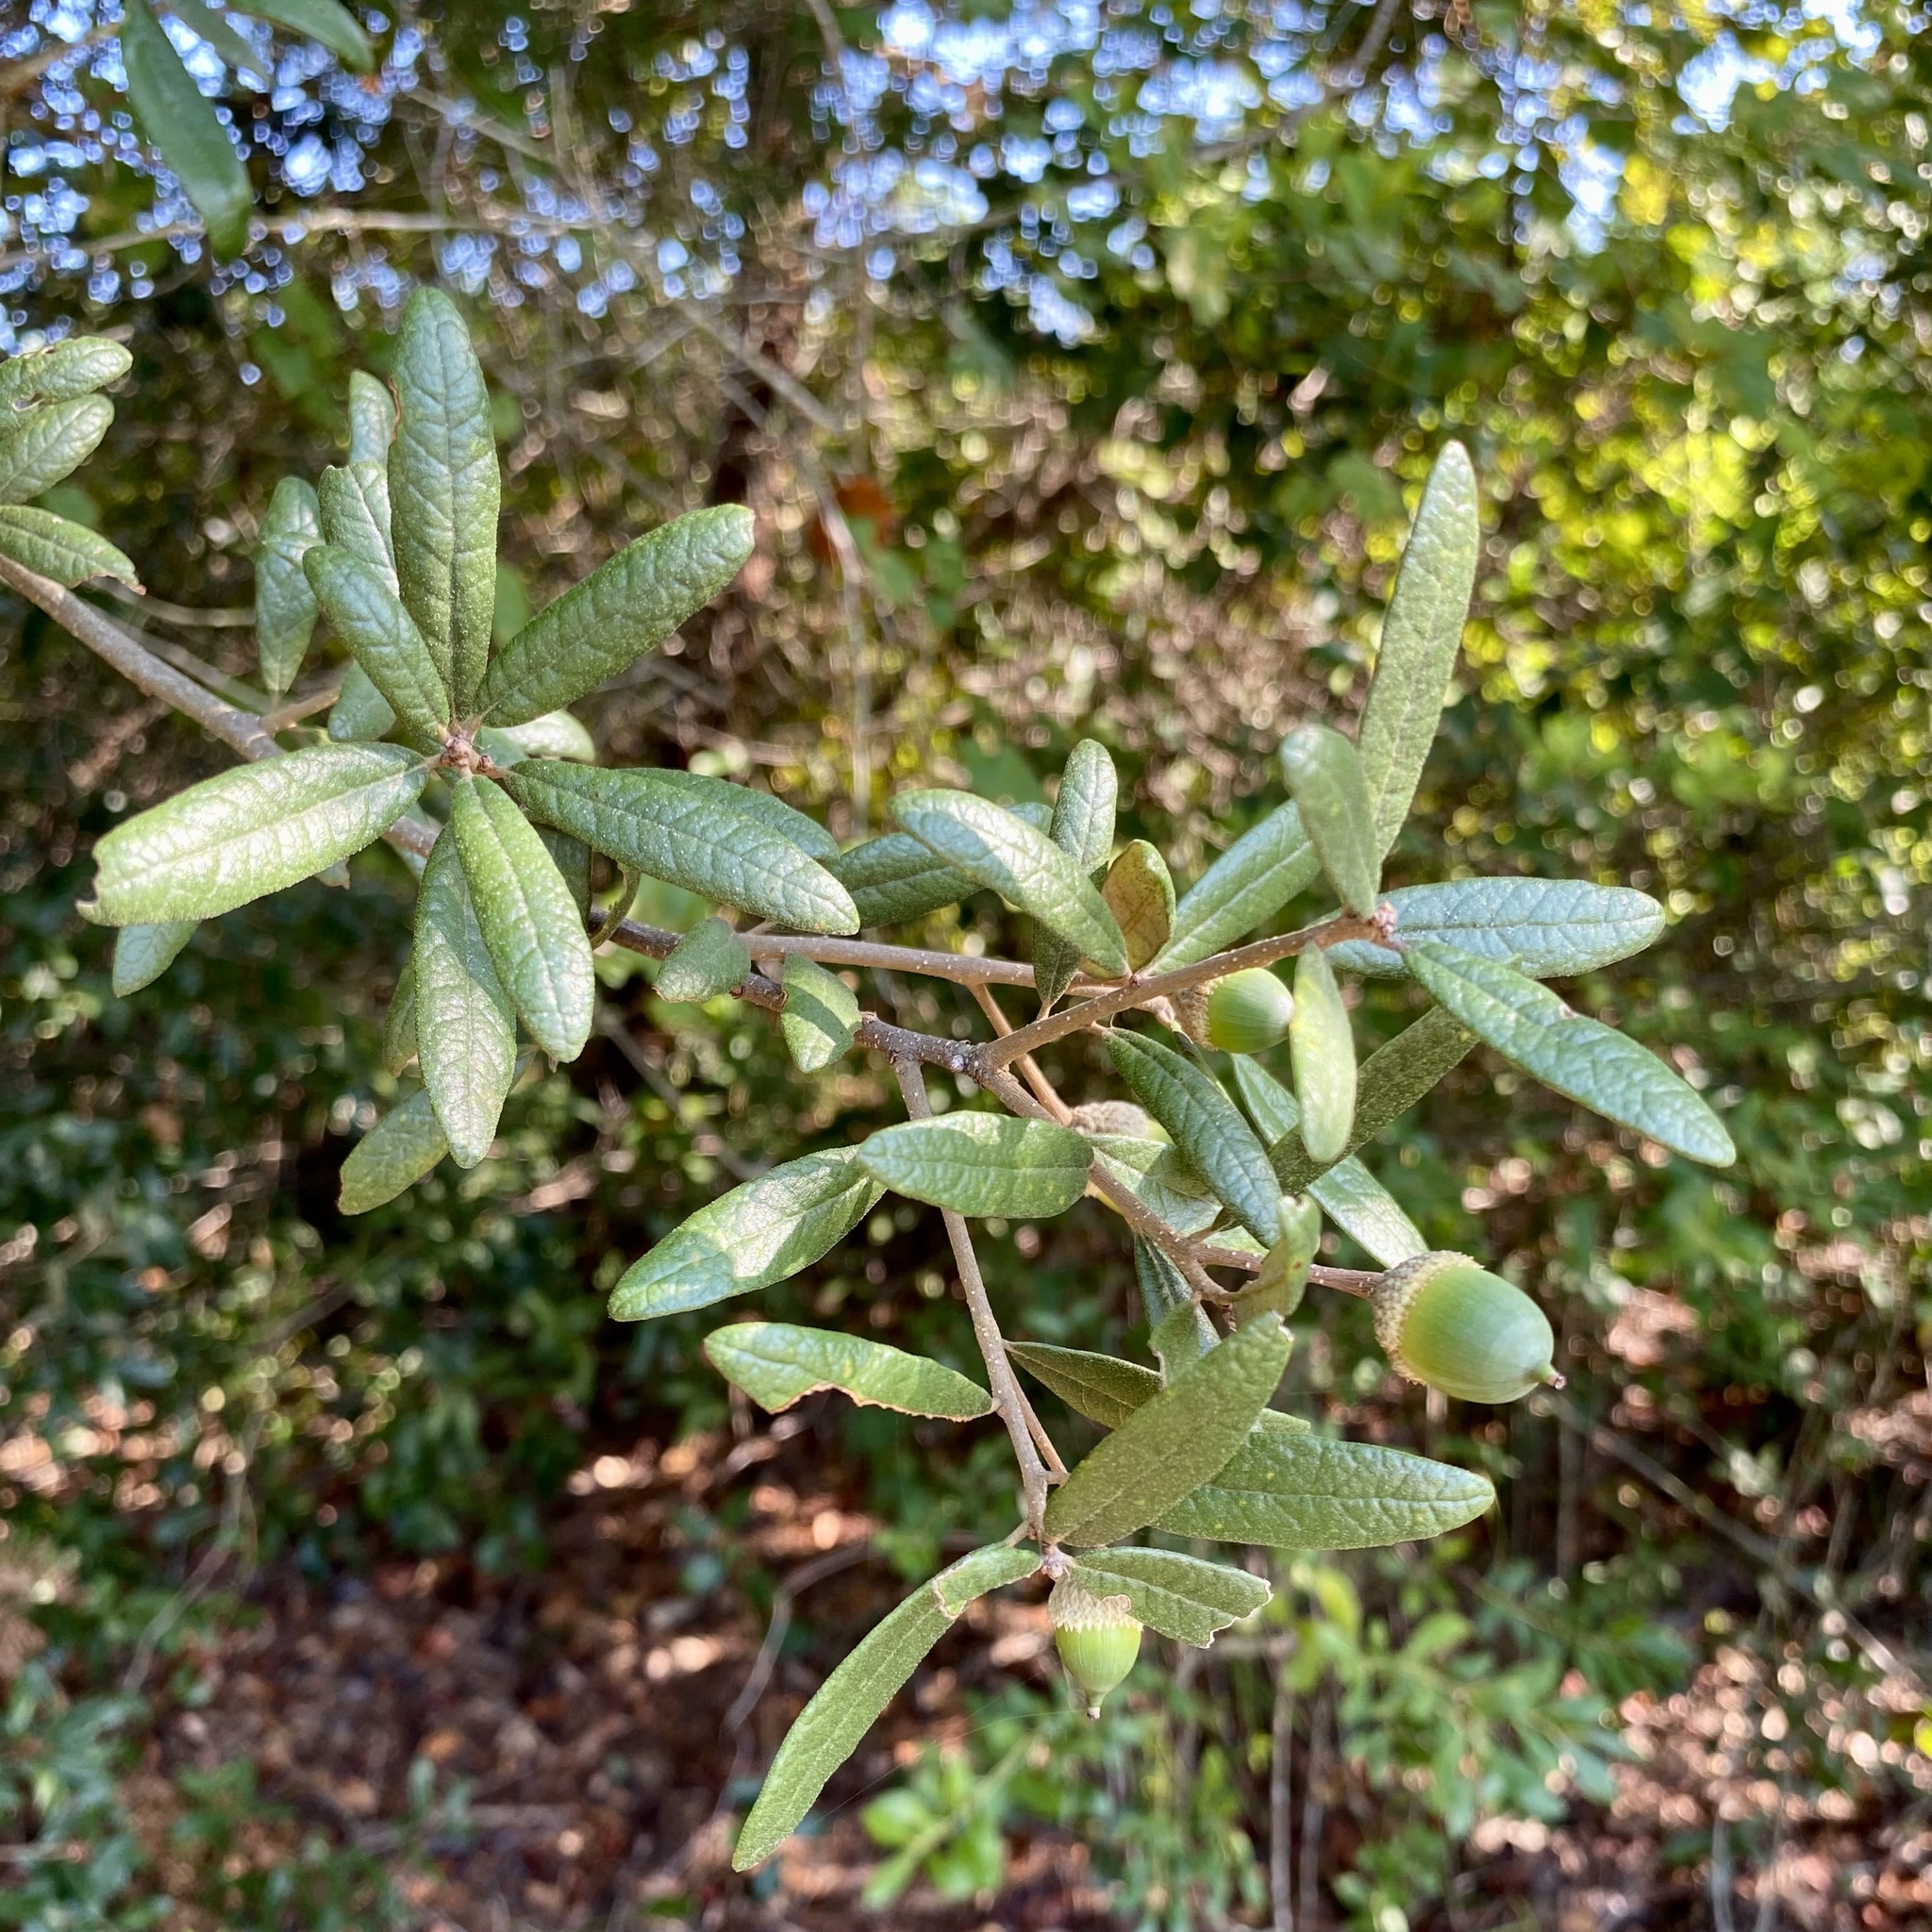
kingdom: Plantae
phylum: Tracheophyta
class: Magnoliopsida
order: Fagales
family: Fagaceae
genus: Quercus
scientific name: Quercus geminata
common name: Sand live oak
